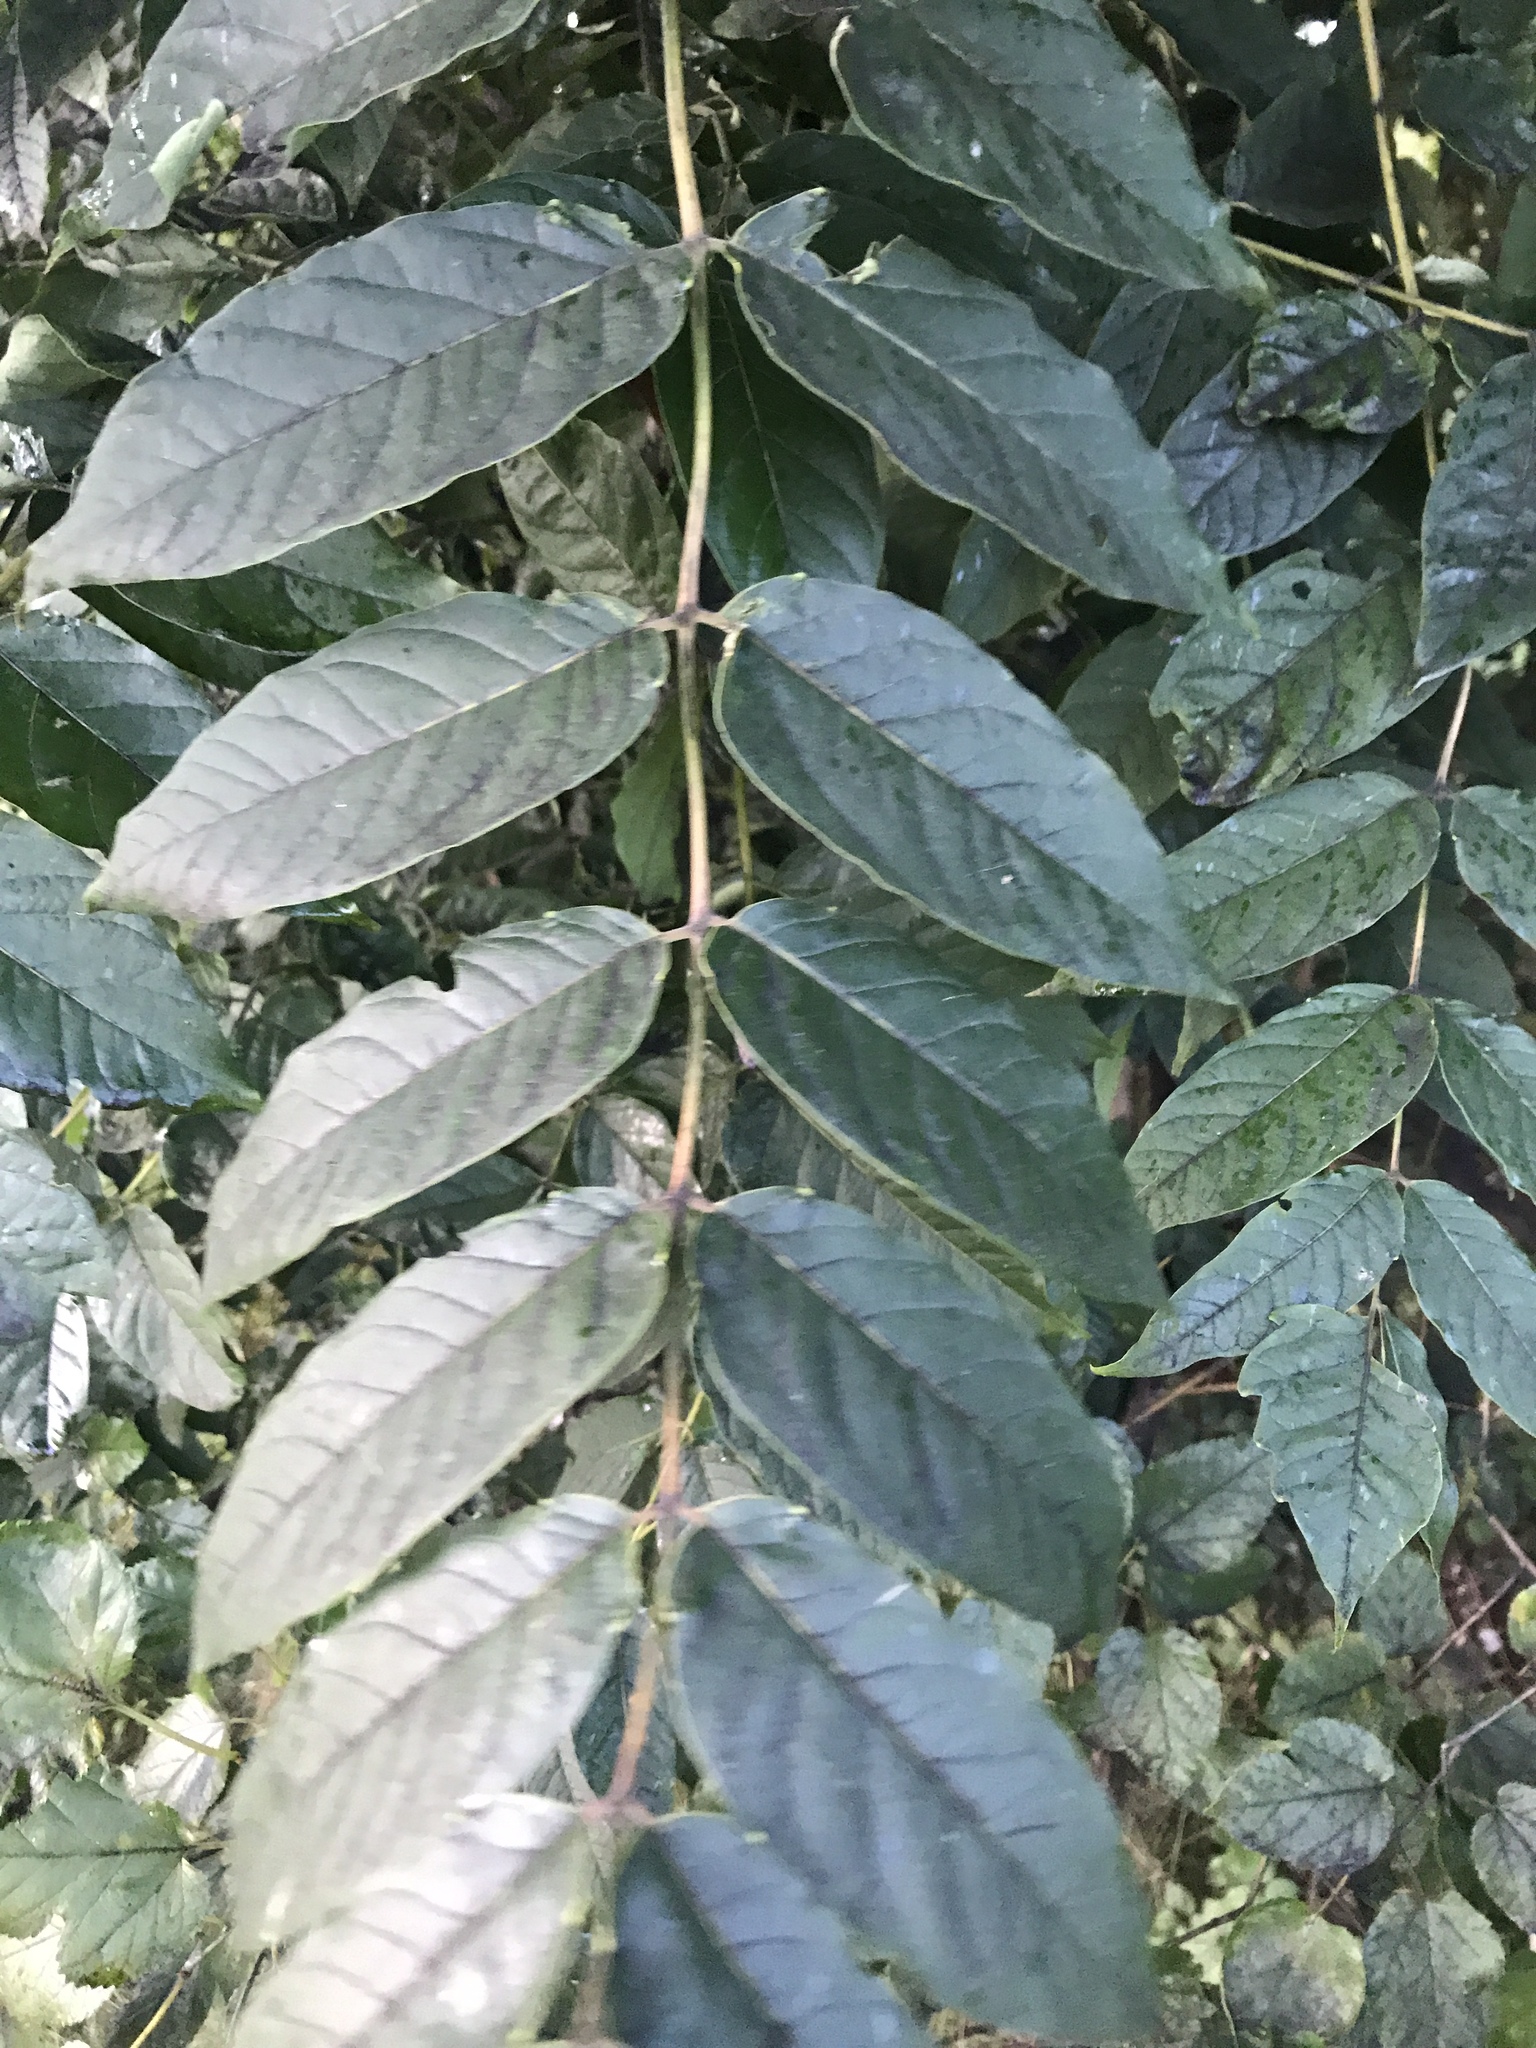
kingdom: Plantae
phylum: Tracheophyta
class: Magnoliopsida
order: Sapindales
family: Simaroubaceae
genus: Ailanthus
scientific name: Ailanthus altissima
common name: Tree-of-heaven
